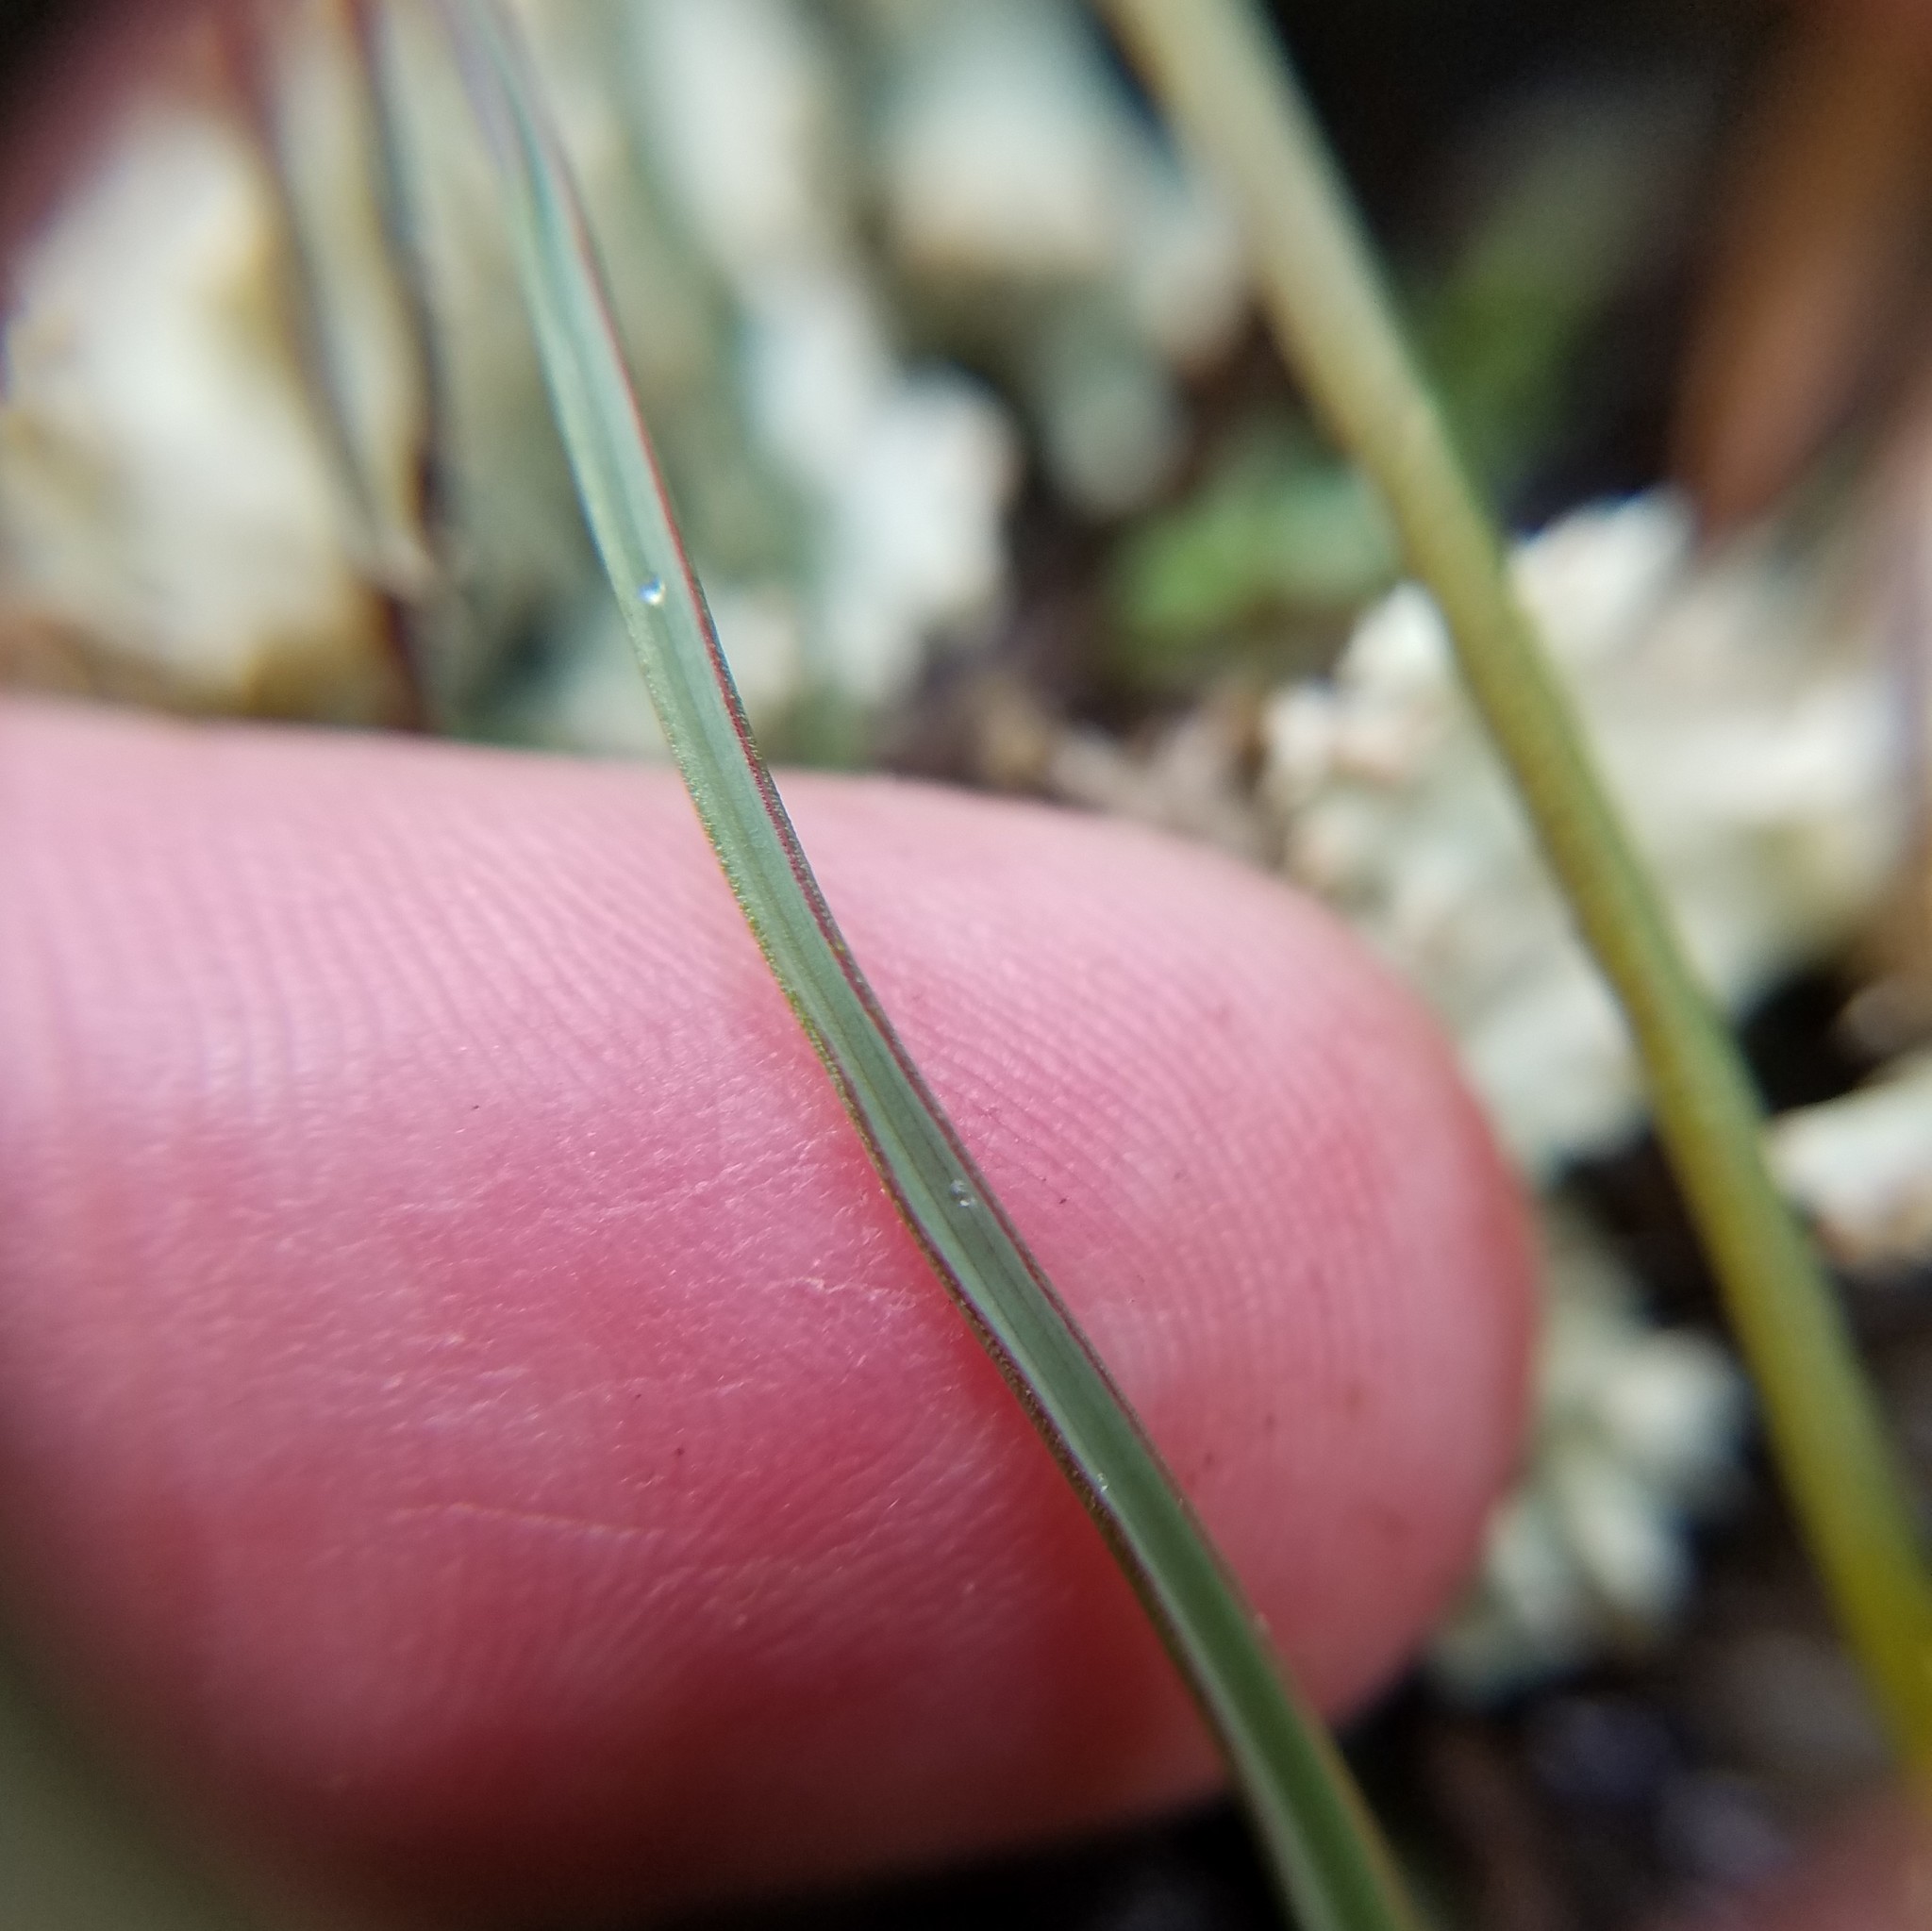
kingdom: Plantae
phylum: Tracheophyta
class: Liliopsida
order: Asparagales
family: Asparagaceae
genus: Schoenolirion
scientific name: Schoenolirion croceum
